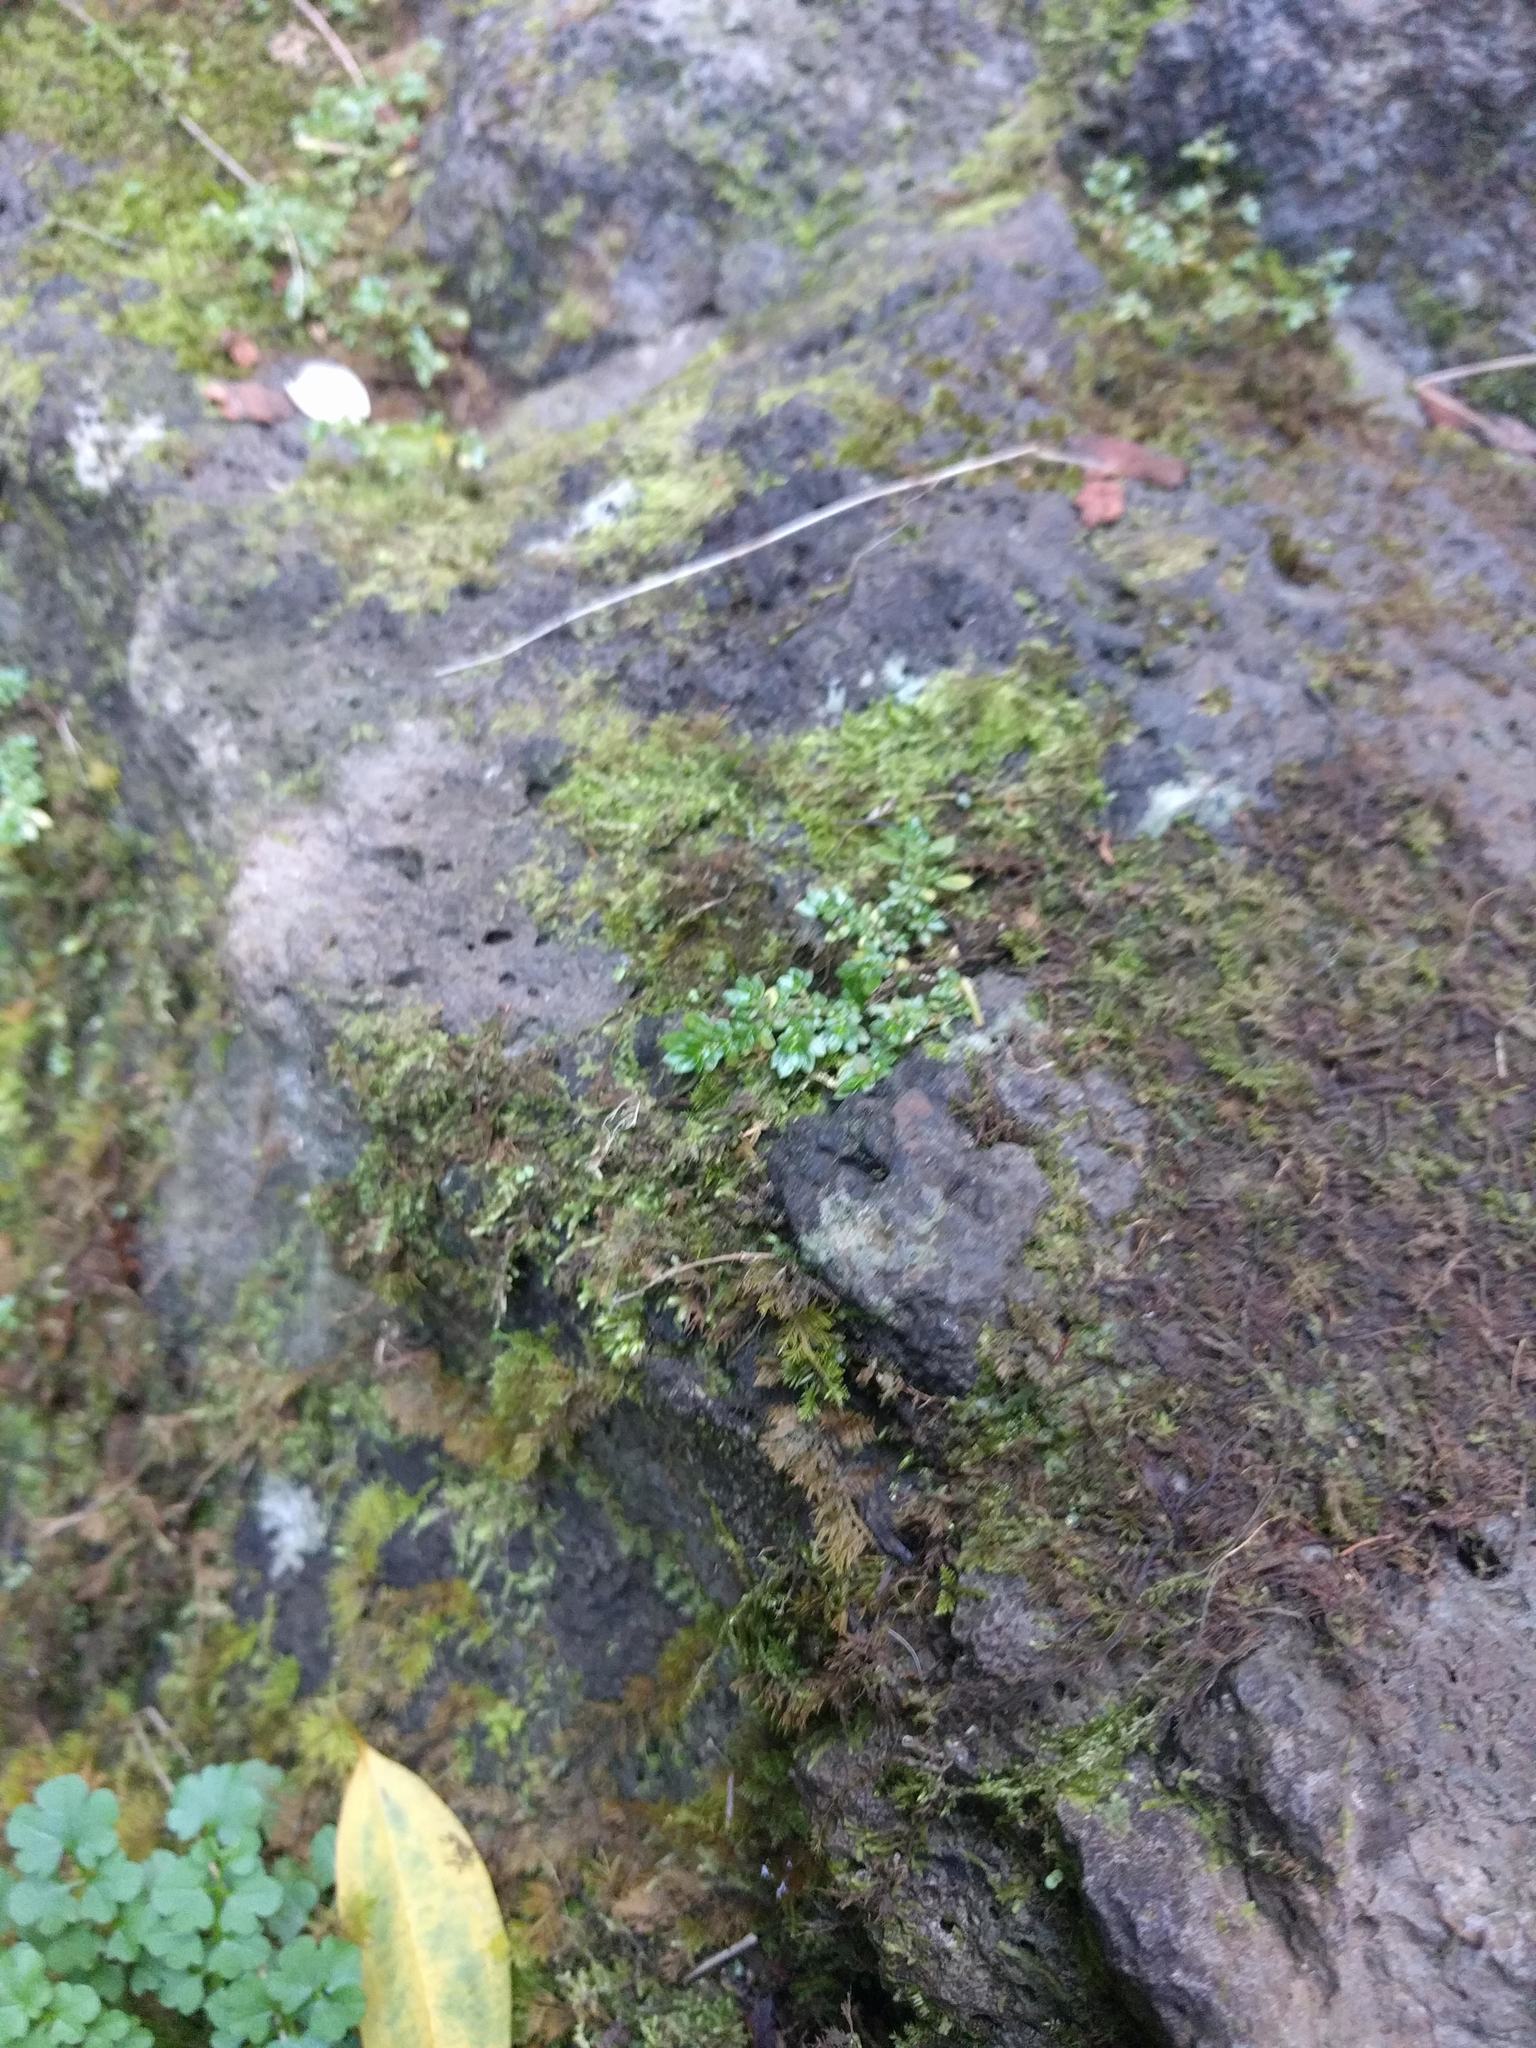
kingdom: Plantae
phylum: Tracheophyta
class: Magnoliopsida
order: Rosales
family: Urticaceae
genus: Pilea
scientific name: Pilea microphylla
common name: Artillery-plant
